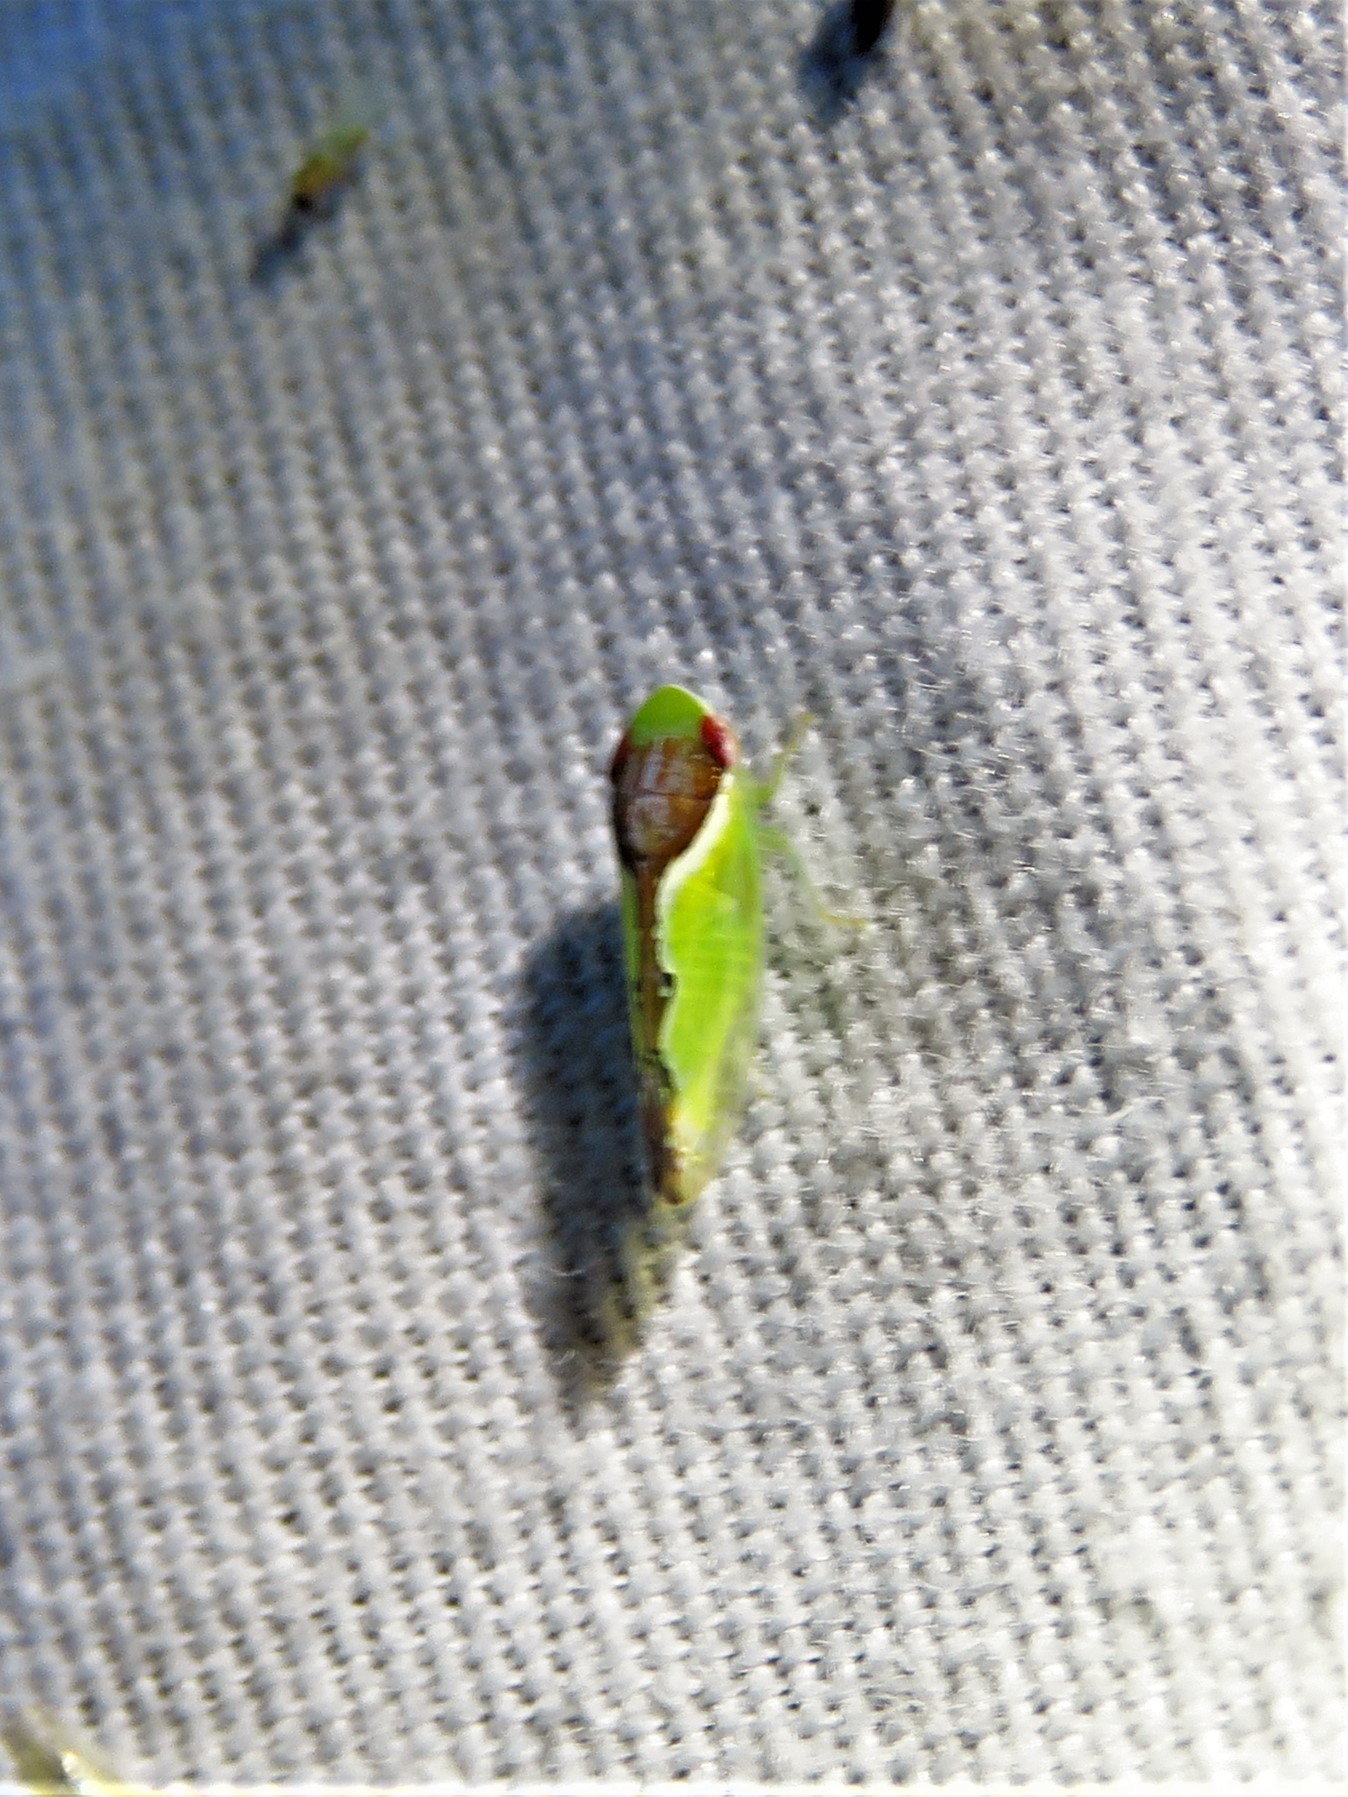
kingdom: Animalia
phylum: Arthropoda
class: Insecta
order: Hemiptera
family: Cicadellidae
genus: Omansobara ing
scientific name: Omansobara ing Omansobara palliolata
